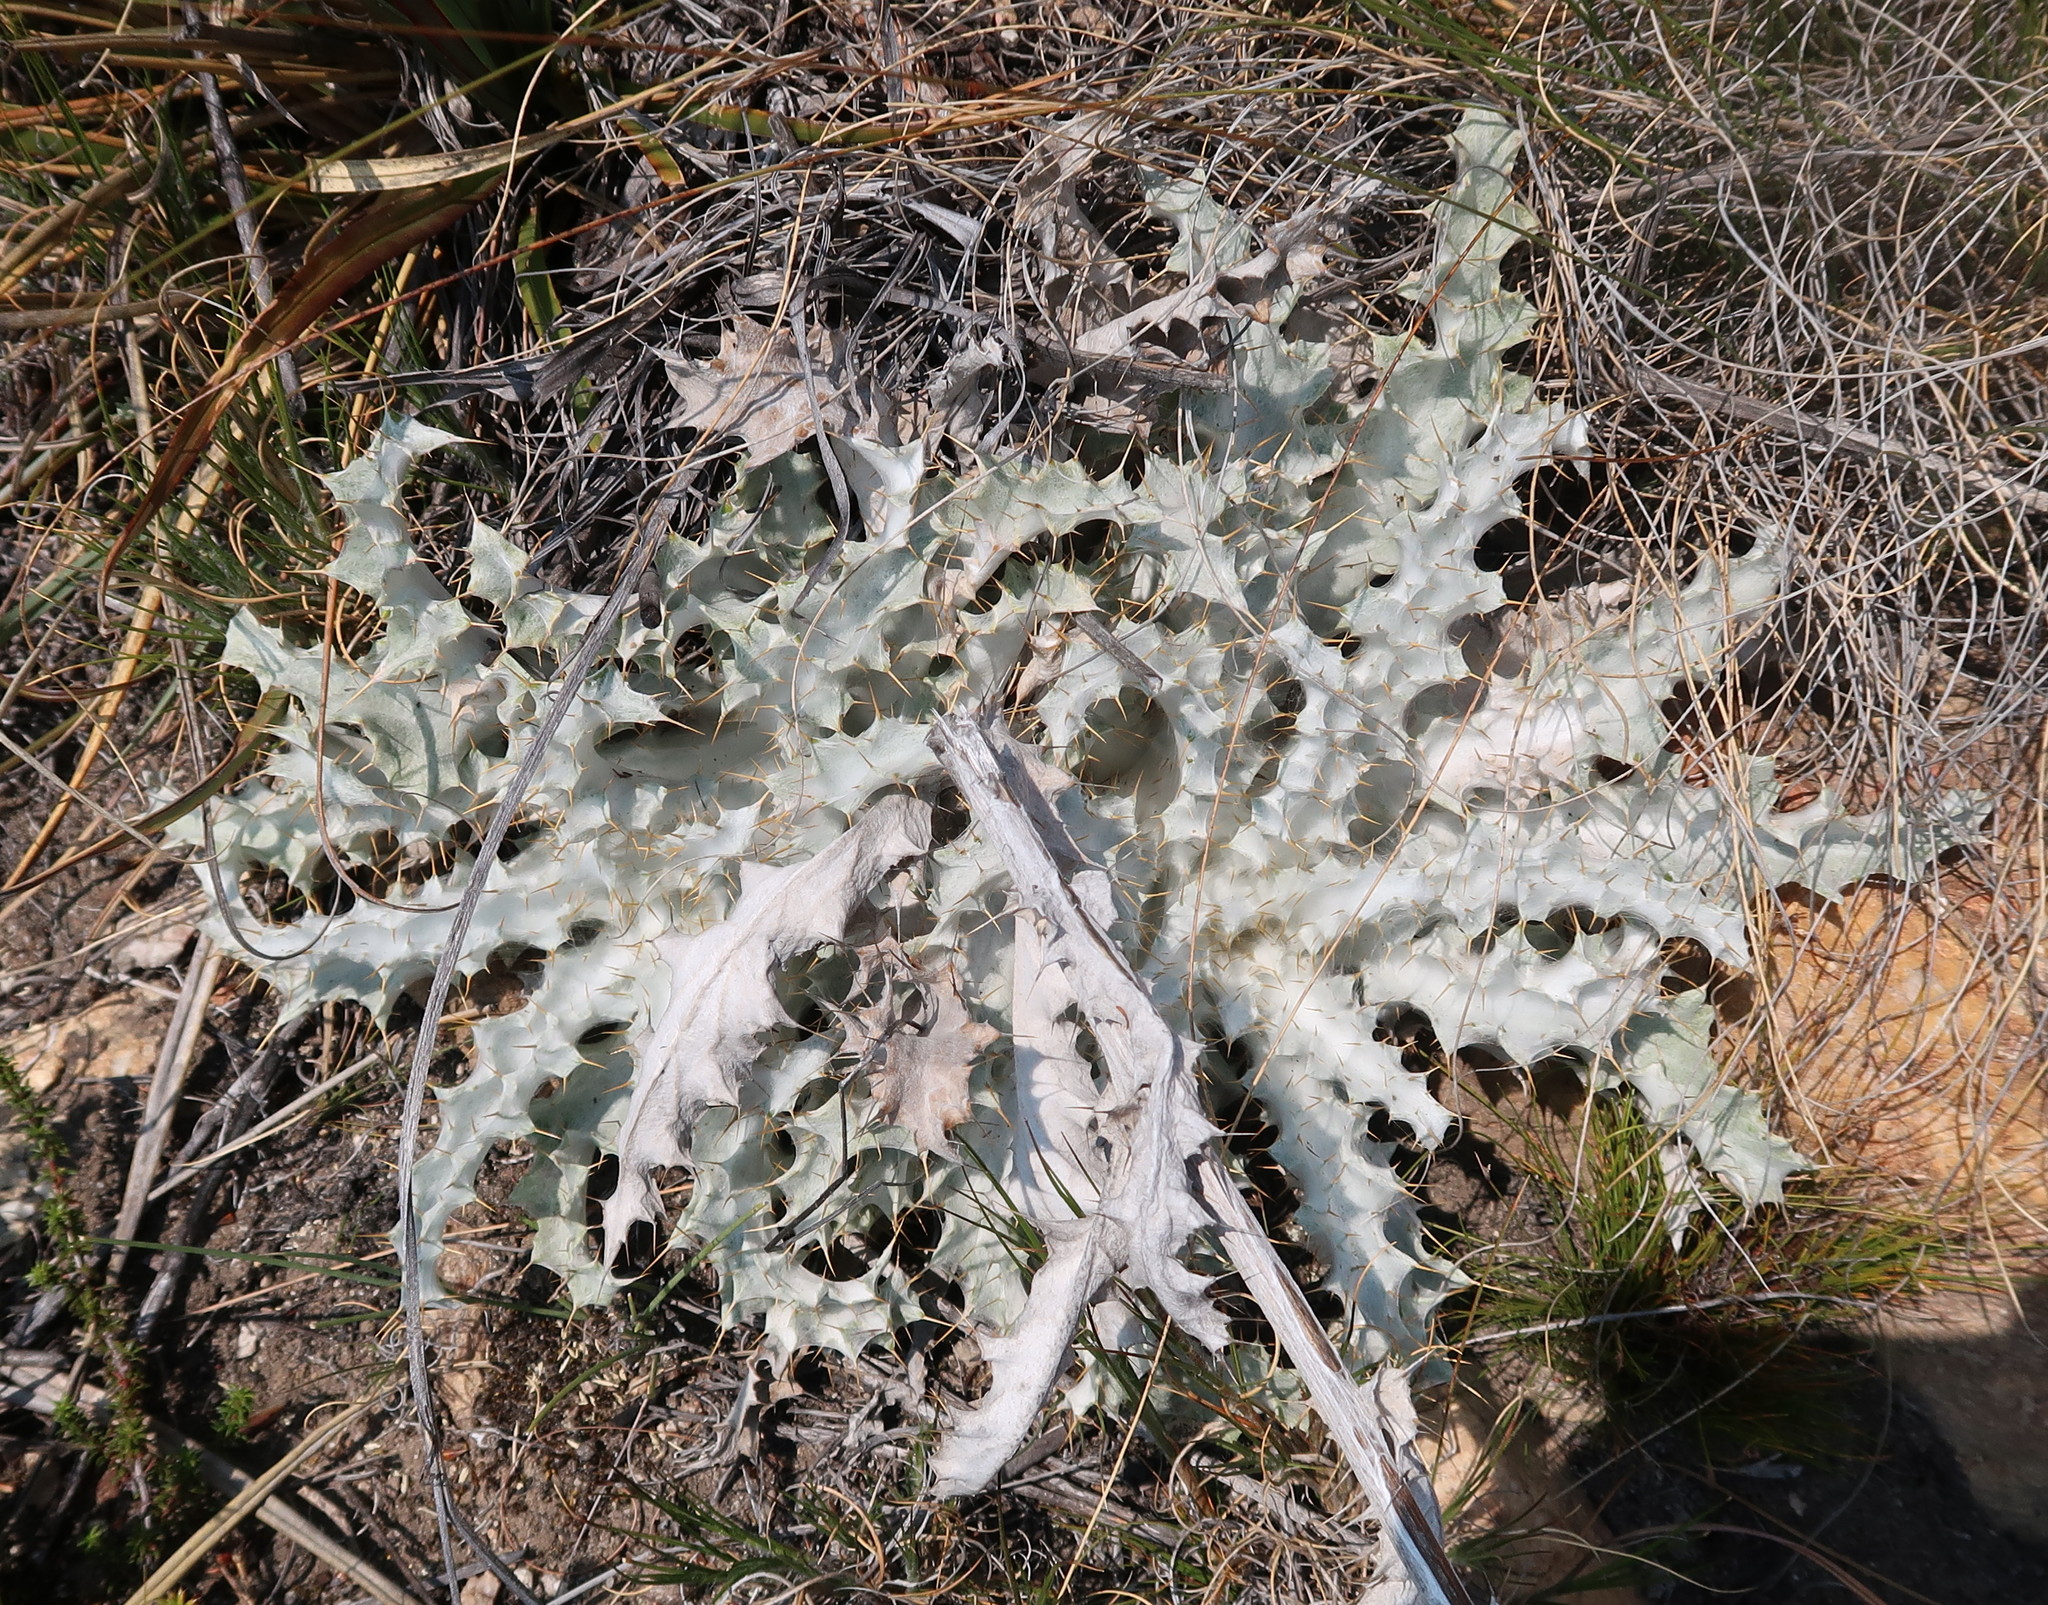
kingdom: Plantae
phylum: Tracheophyta
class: Magnoliopsida
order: Asterales
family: Asteraceae
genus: Berkheya
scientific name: Berkheya francisci
